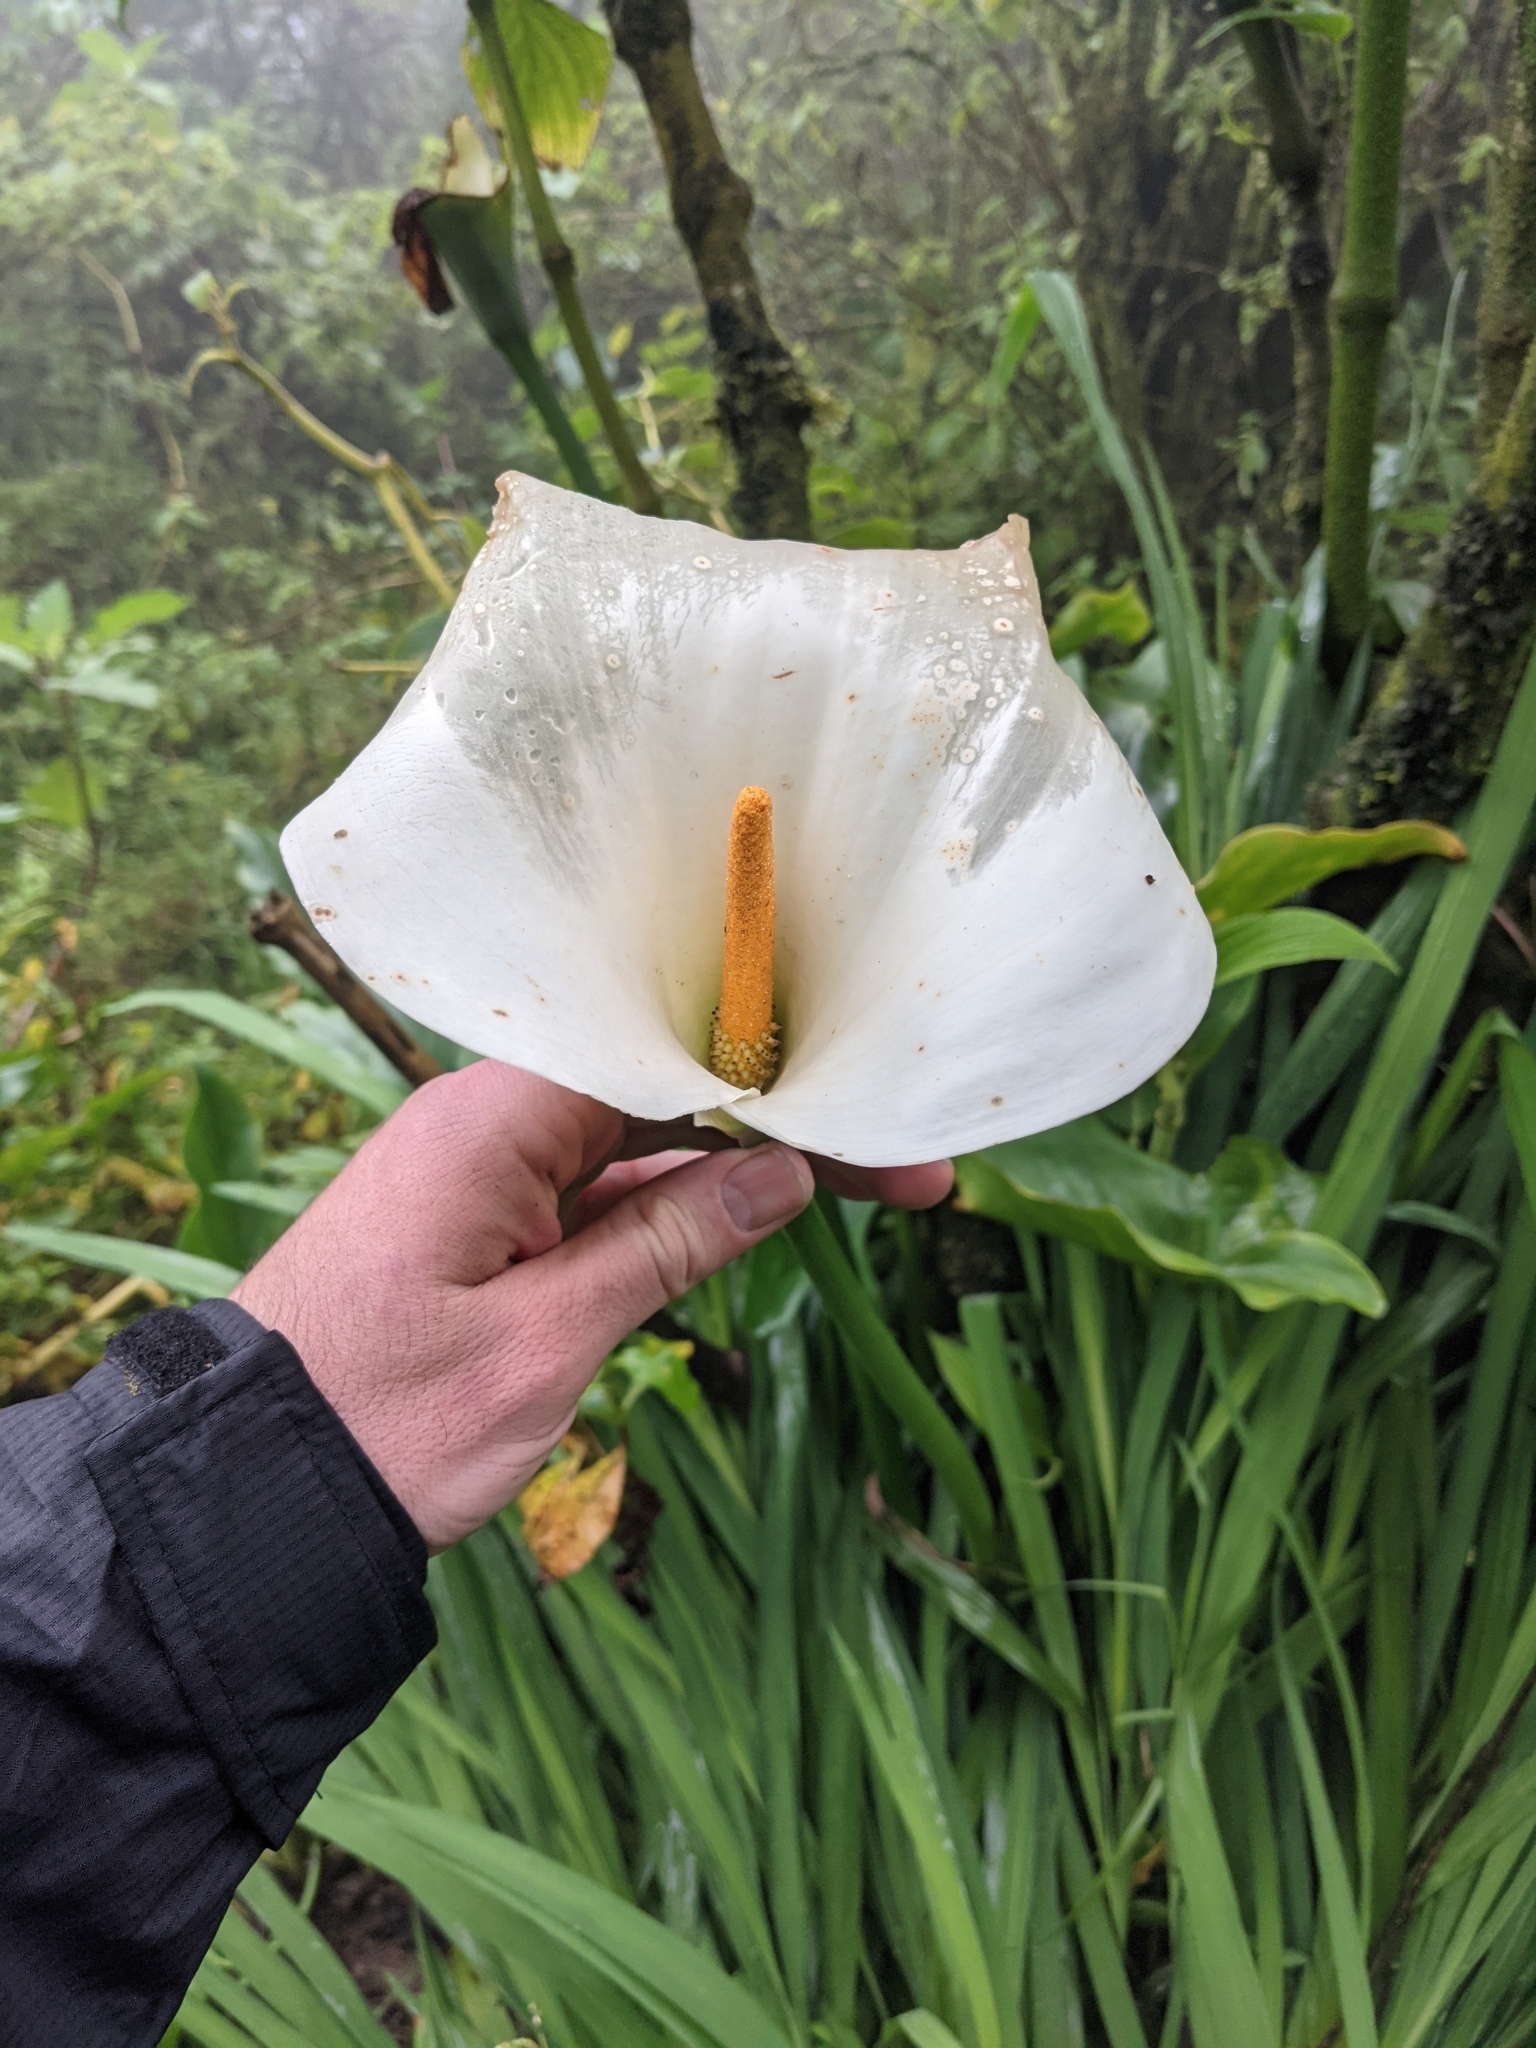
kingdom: Plantae
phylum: Tracheophyta
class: Liliopsida
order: Alismatales
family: Araceae
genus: Zantedeschia
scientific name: Zantedeschia aethiopica
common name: Altar-lily
